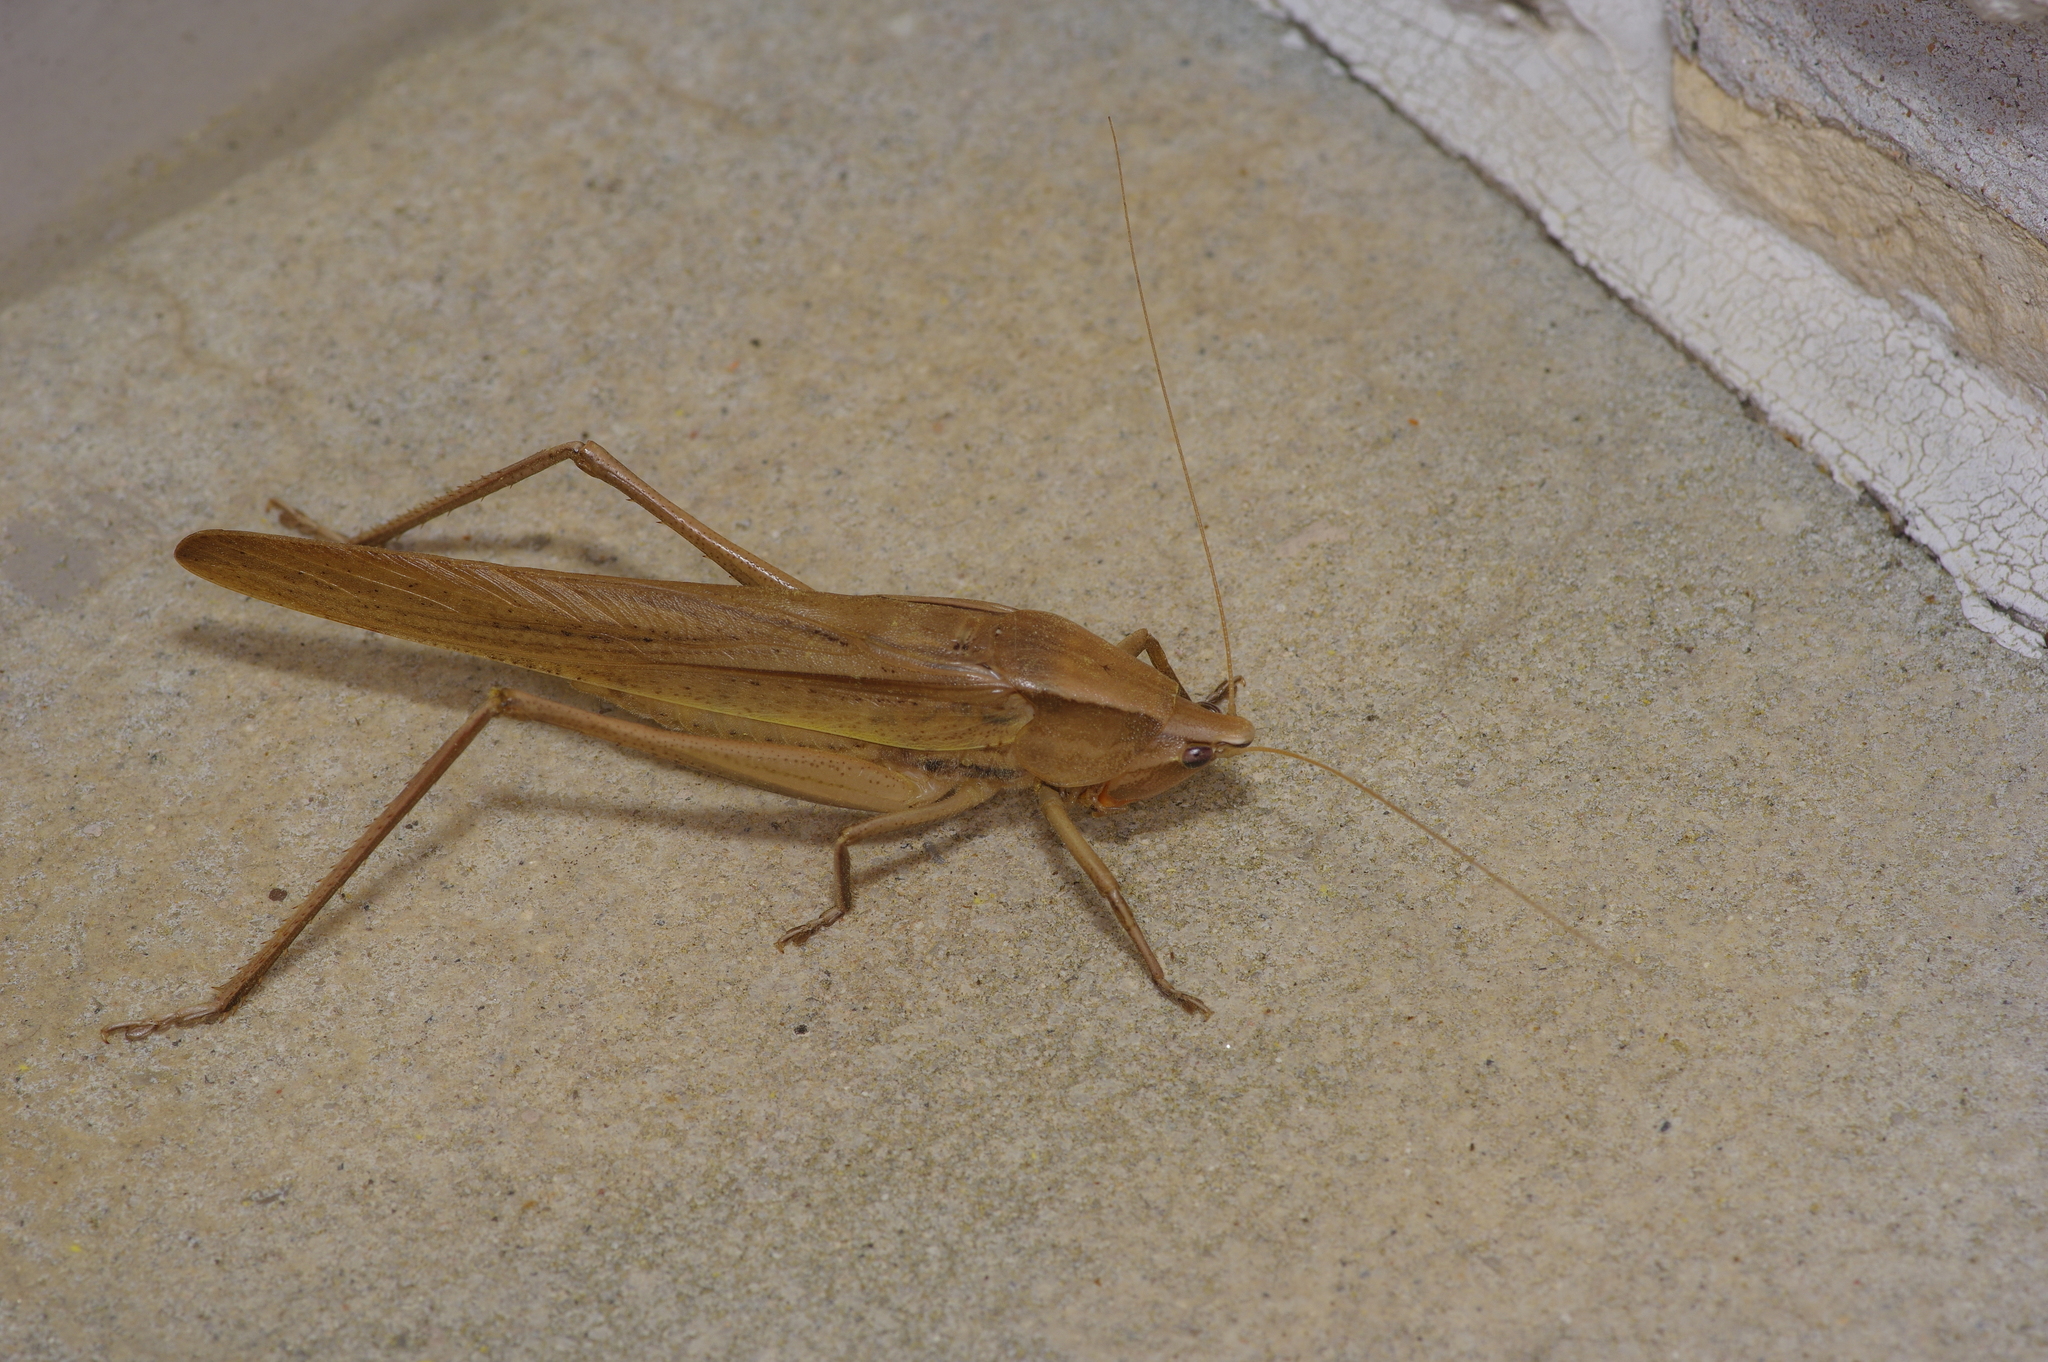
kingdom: Animalia
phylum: Arthropoda
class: Insecta
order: Orthoptera
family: Tettigoniidae
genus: Neoconocephalus
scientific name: Neoconocephalus triops
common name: Broad-tipped conehead
